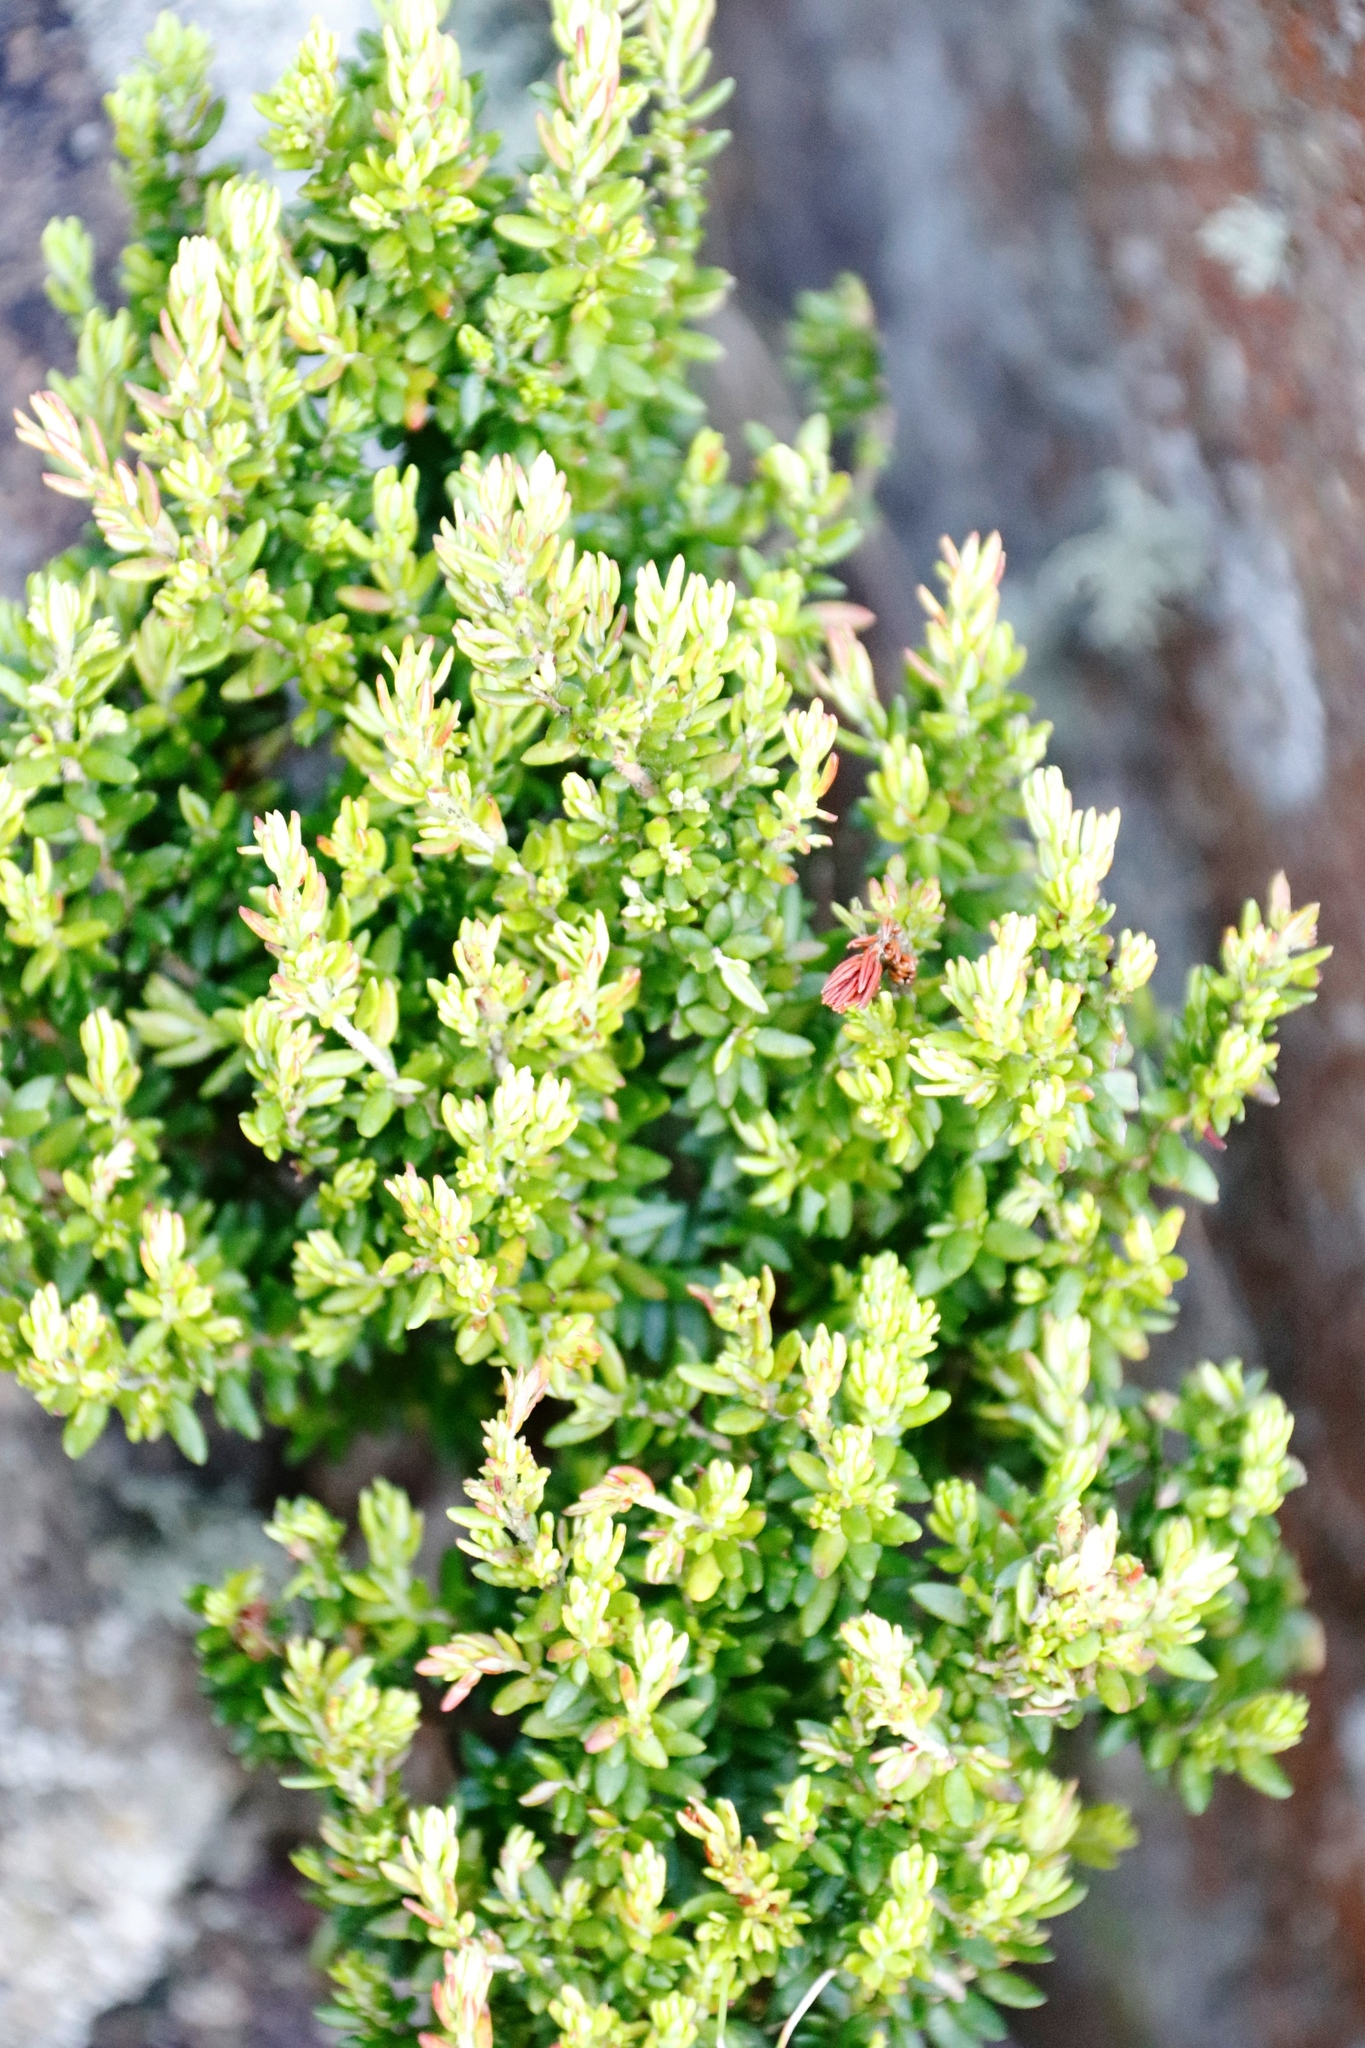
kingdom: Plantae
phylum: Tracheophyta
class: Magnoliopsida
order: Ericales
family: Ericaceae
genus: Erica
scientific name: Erica hispidula
